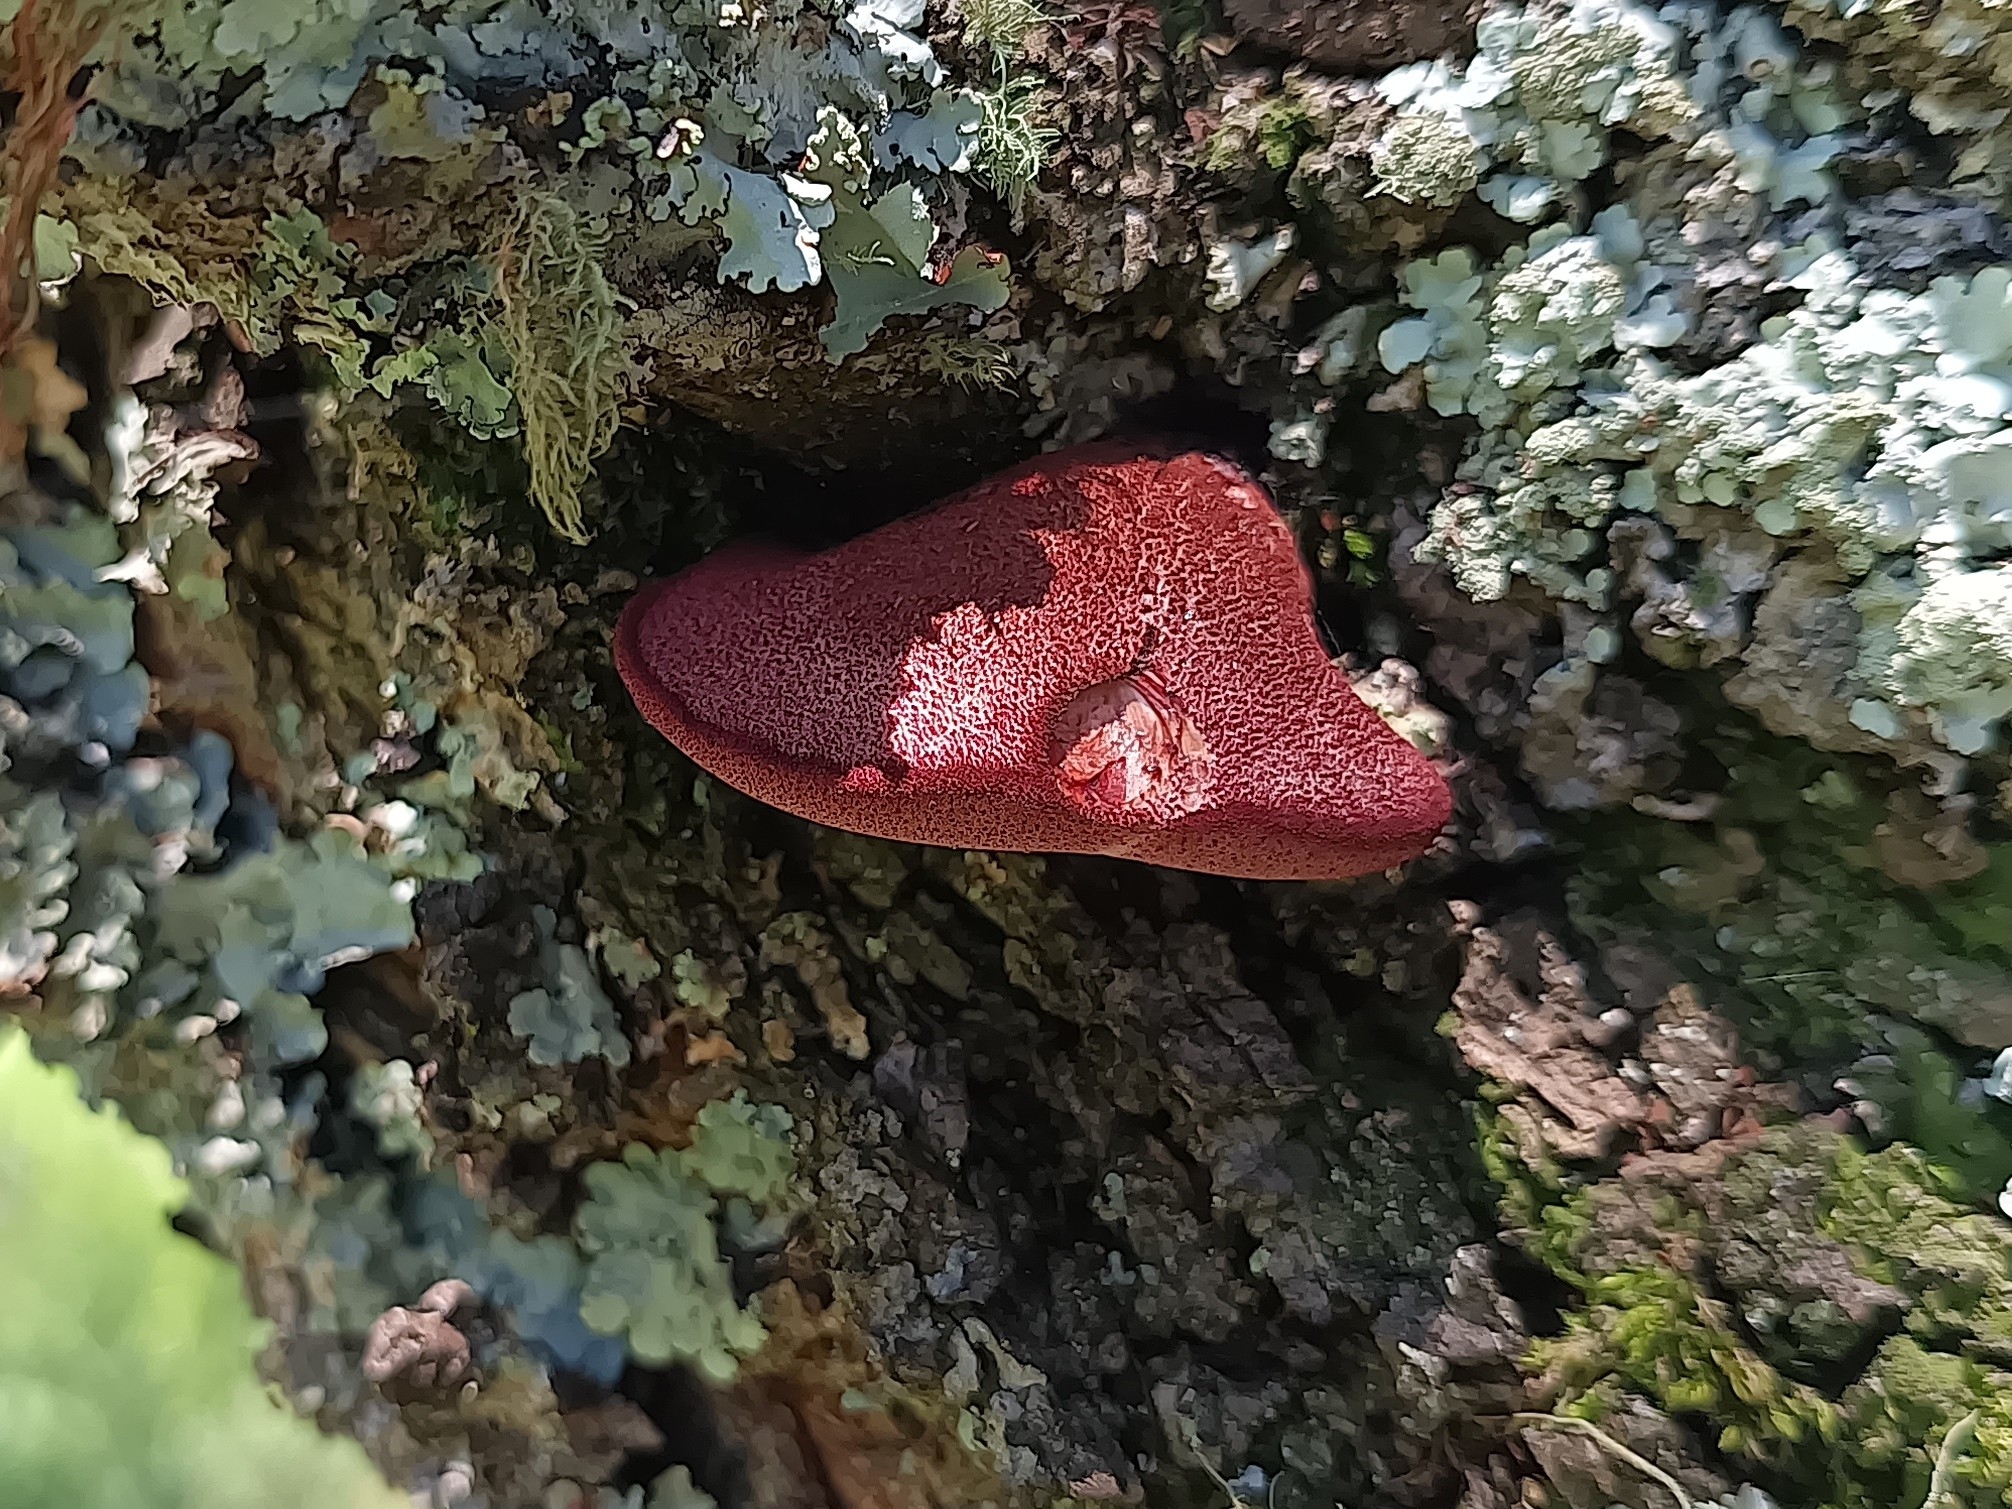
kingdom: Fungi
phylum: Basidiomycota
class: Agaricomycetes
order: Agaricales
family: Fistulinaceae
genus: Fistulina
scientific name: Fistulina guzmanii
